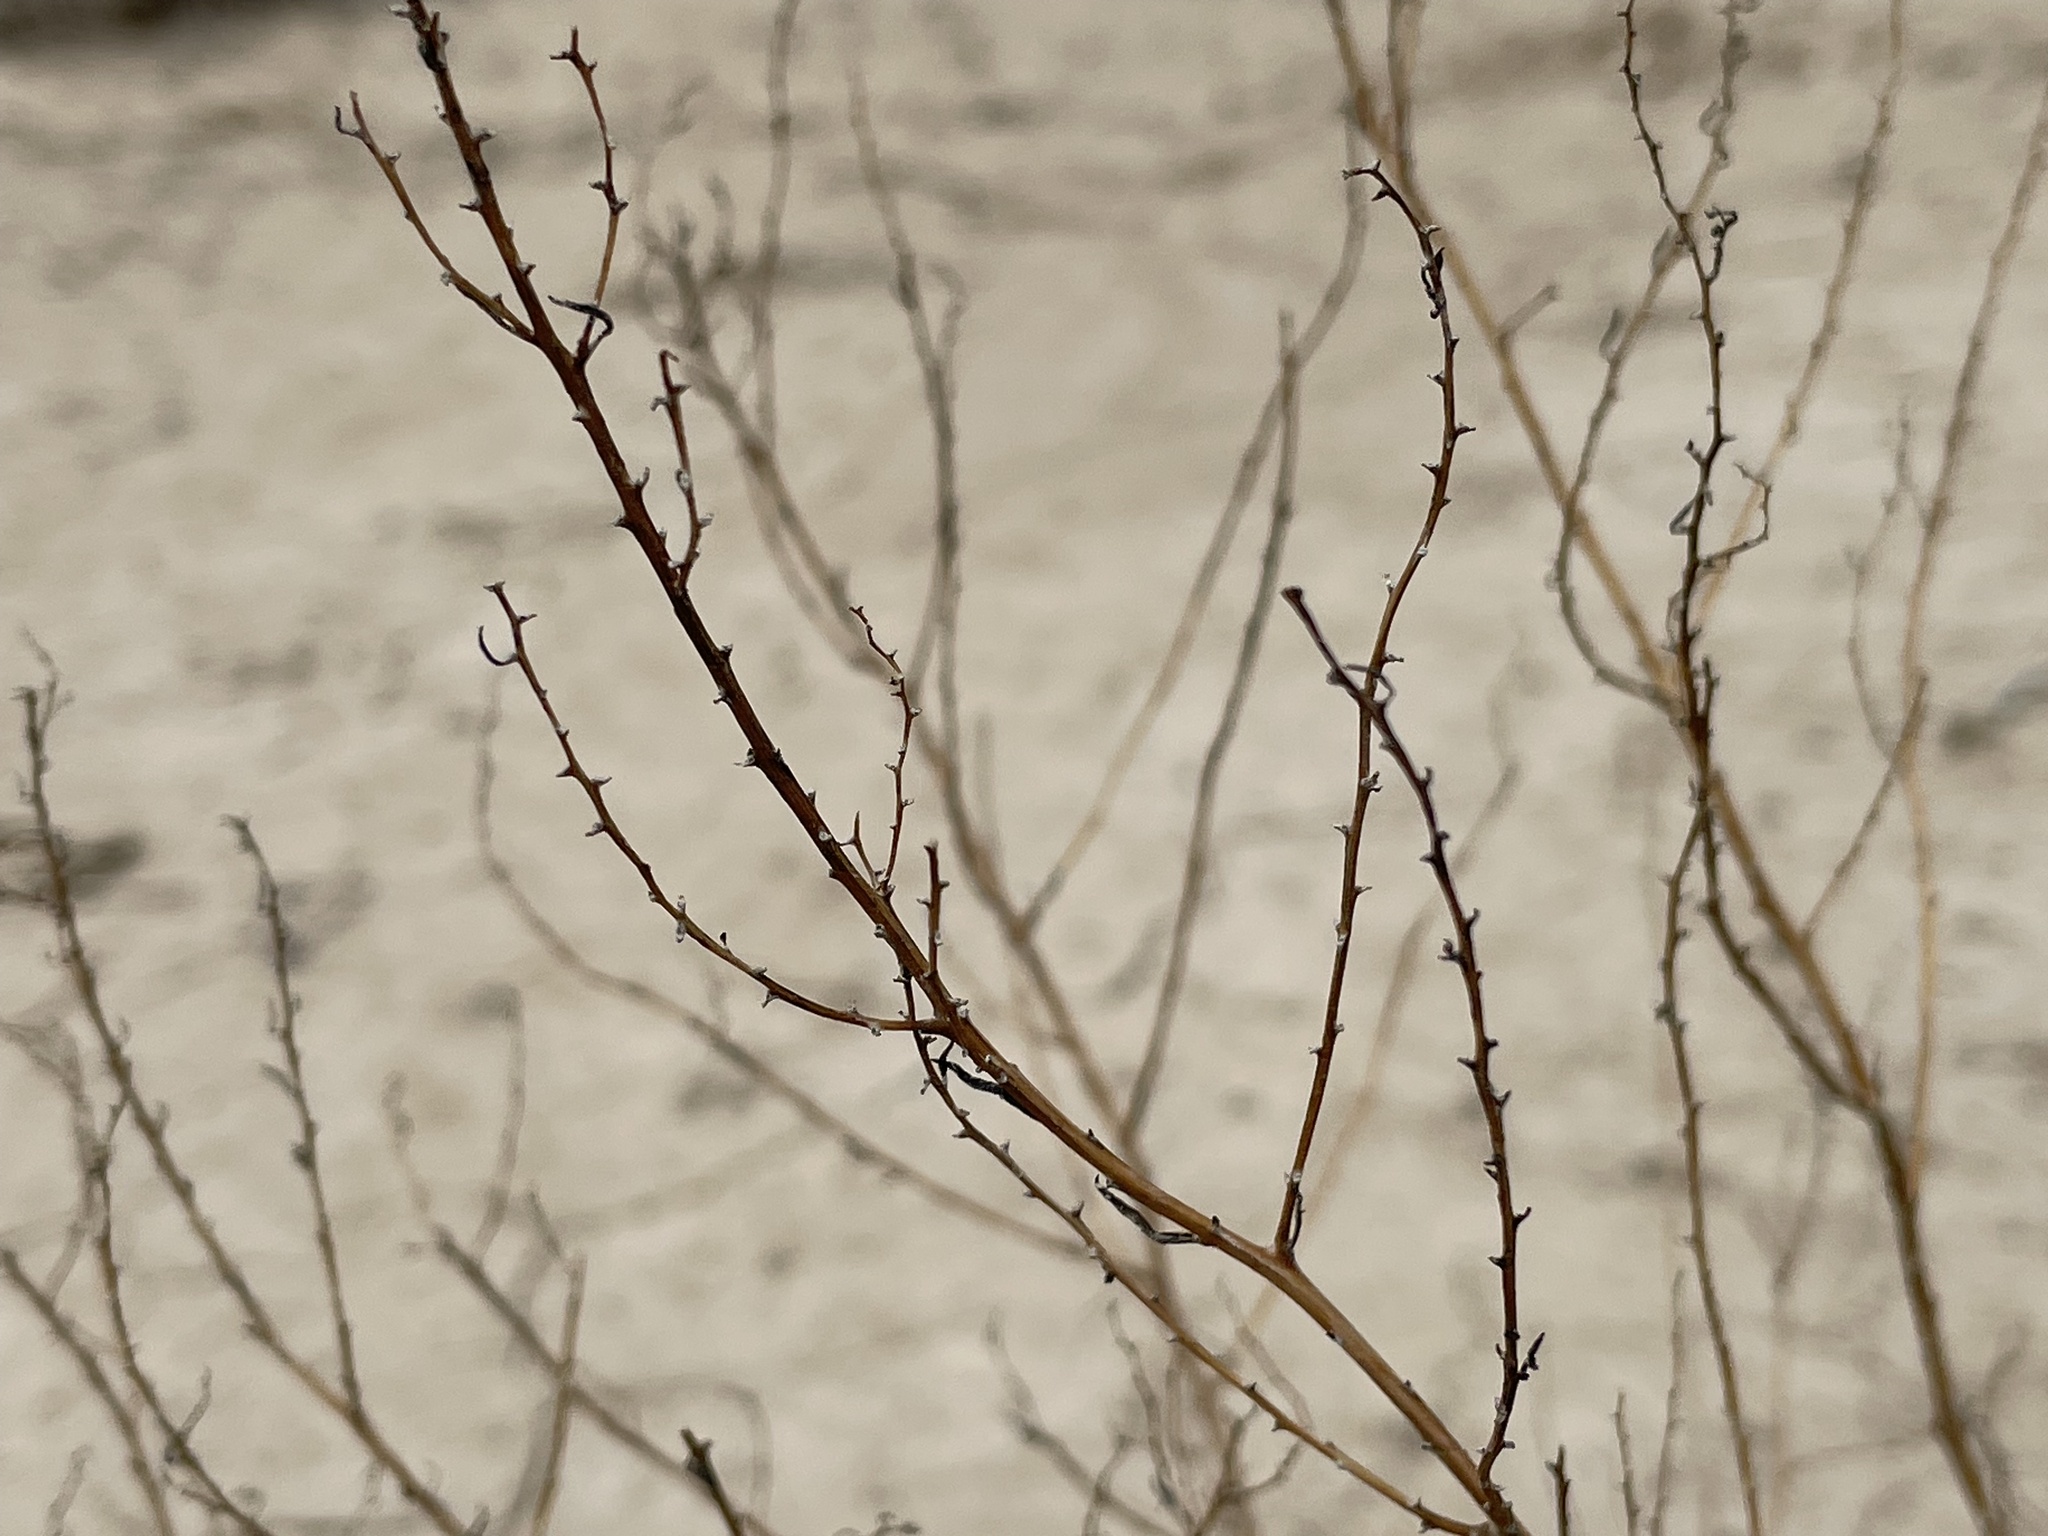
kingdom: Plantae
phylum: Tracheophyta
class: Magnoliopsida
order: Caryophyllales
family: Amaranthaceae
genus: Suaeda
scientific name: Suaeda nigra
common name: Bush seepweed
